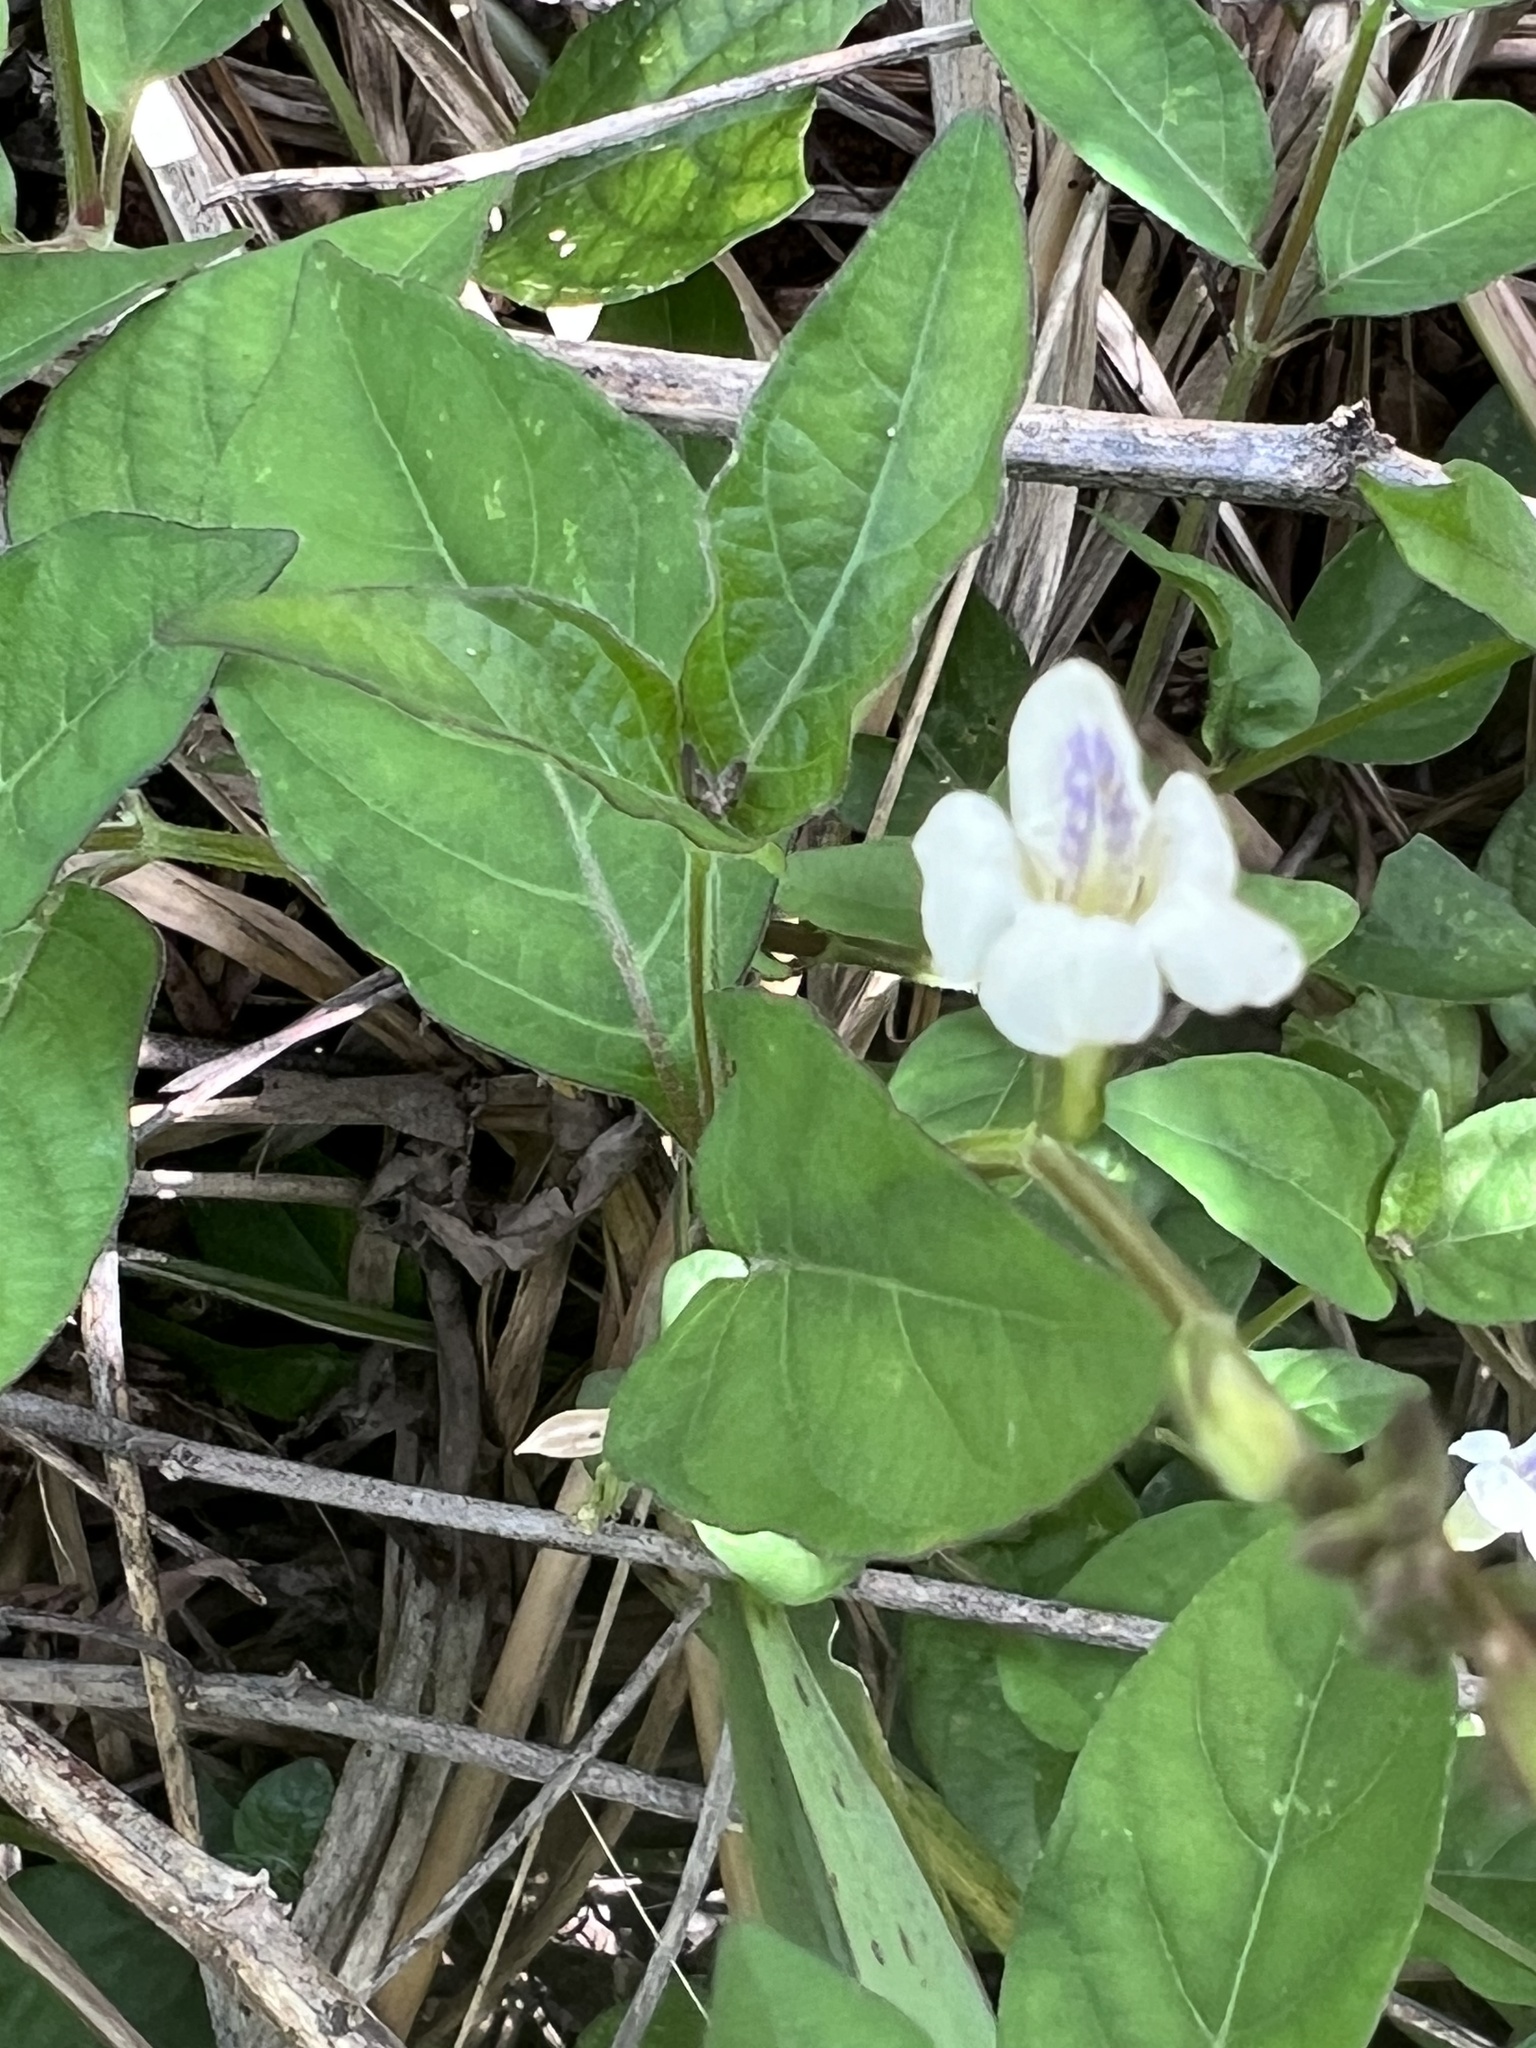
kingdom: Plantae
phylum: Tracheophyta
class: Magnoliopsida
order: Lamiales
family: Acanthaceae
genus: Asystasia
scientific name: Asystasia intrusa
